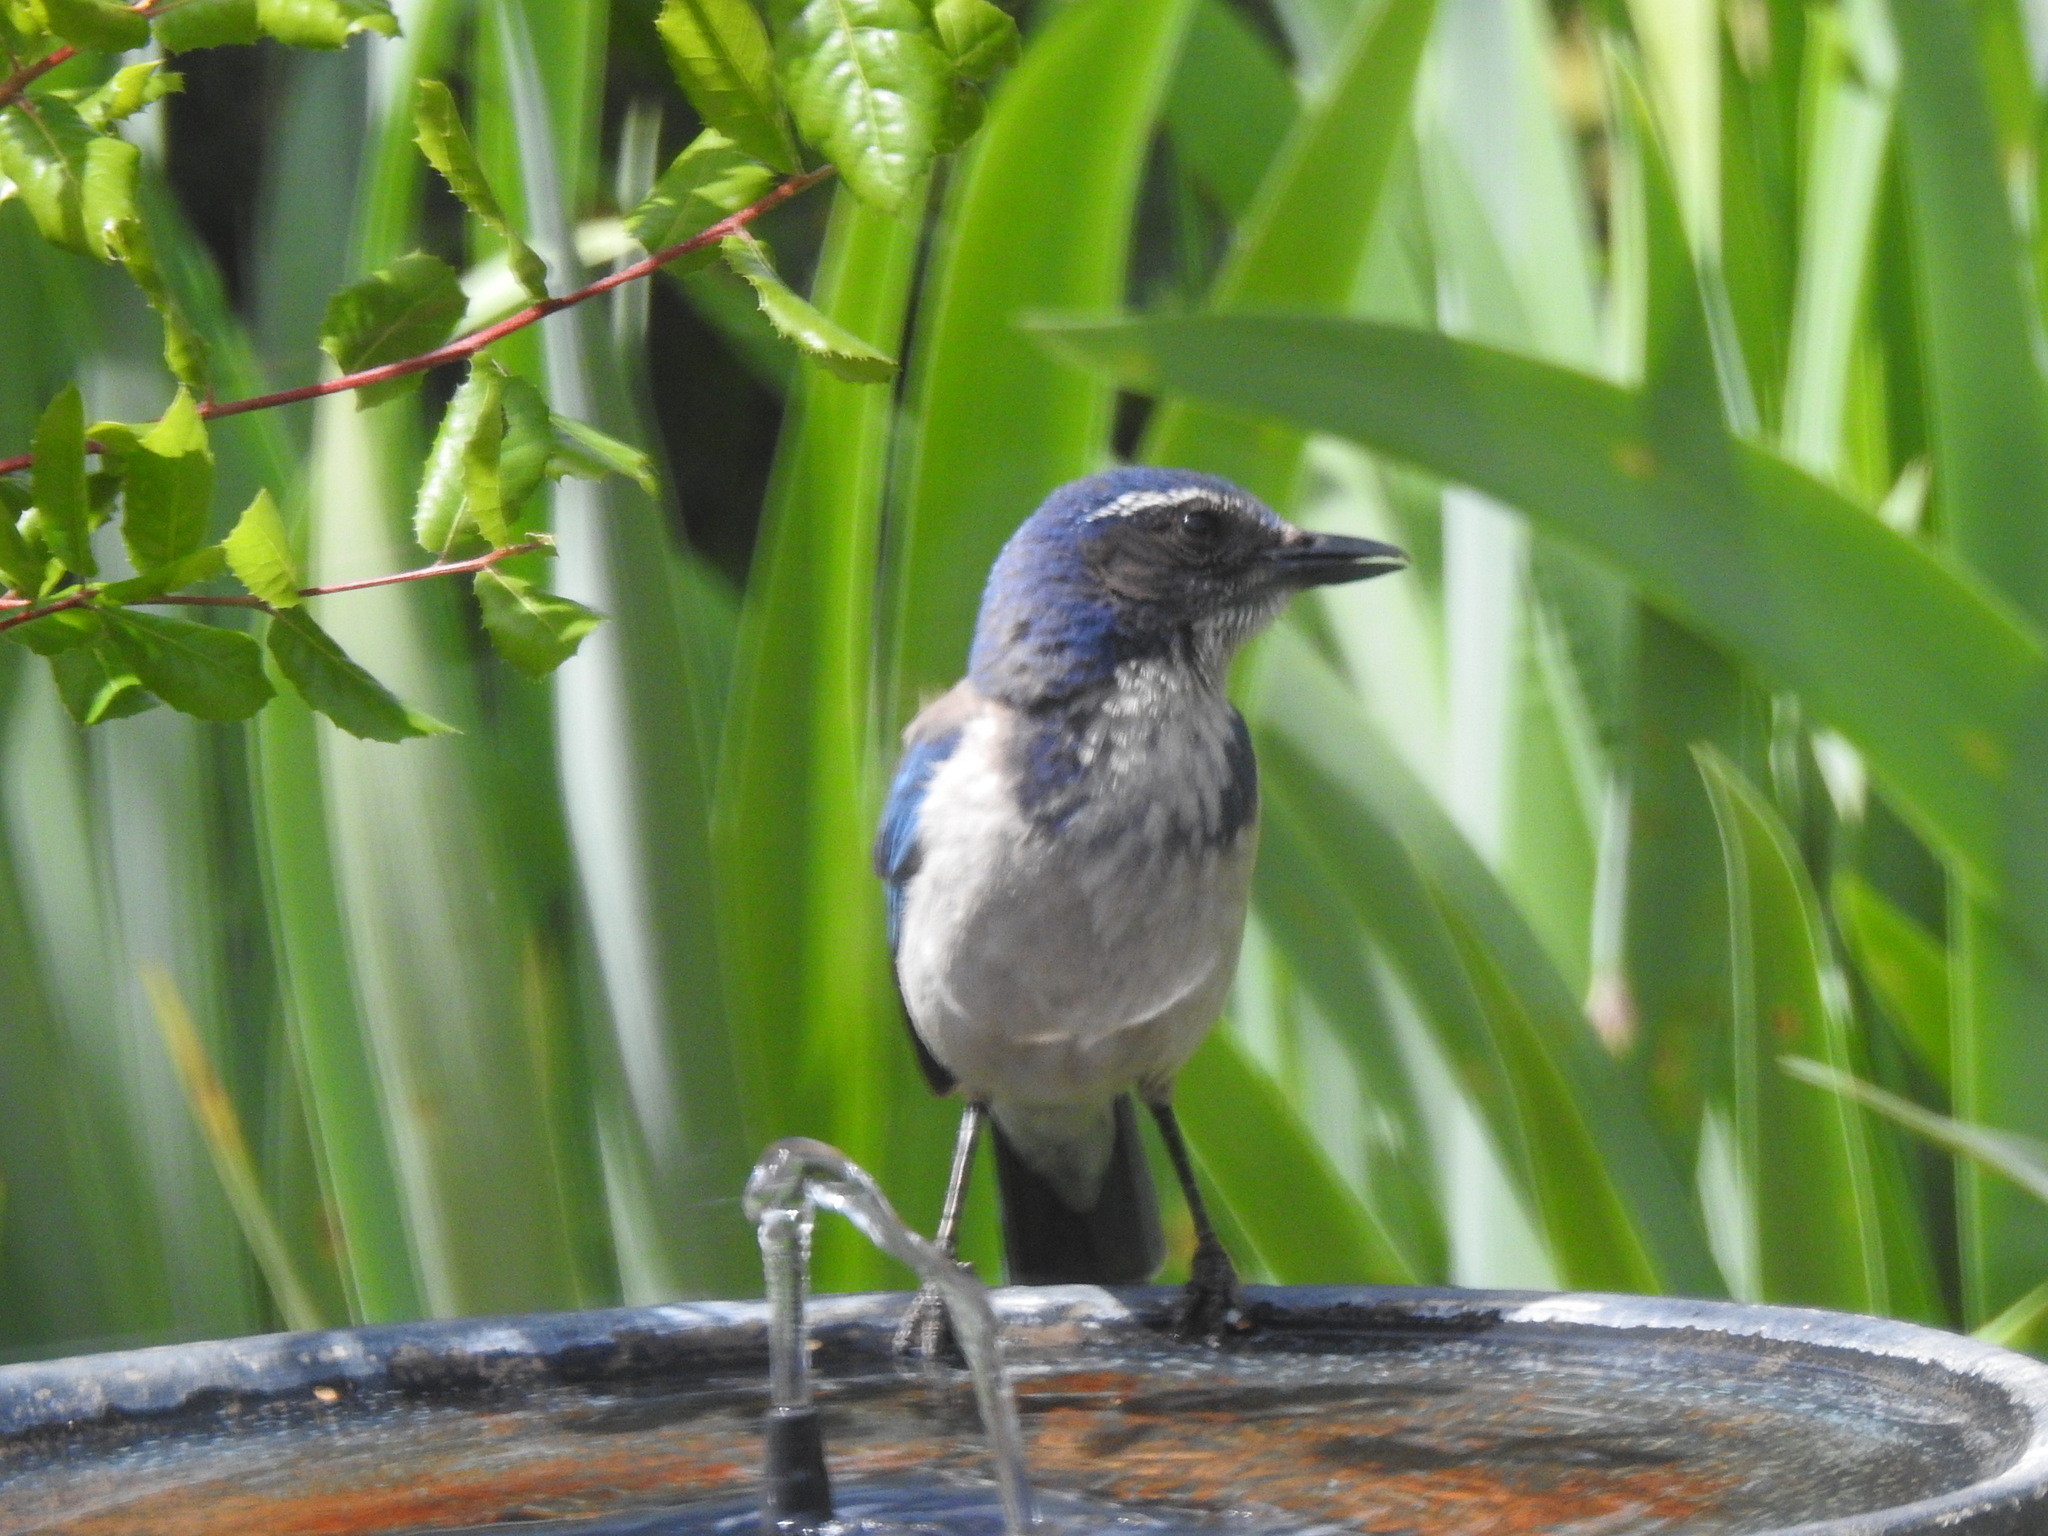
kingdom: Animalia
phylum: Chordata
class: Aves
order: Passeriformes
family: Corvidae
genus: Aphelocoma
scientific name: Aphelocoma californica
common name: California scrub-jay
